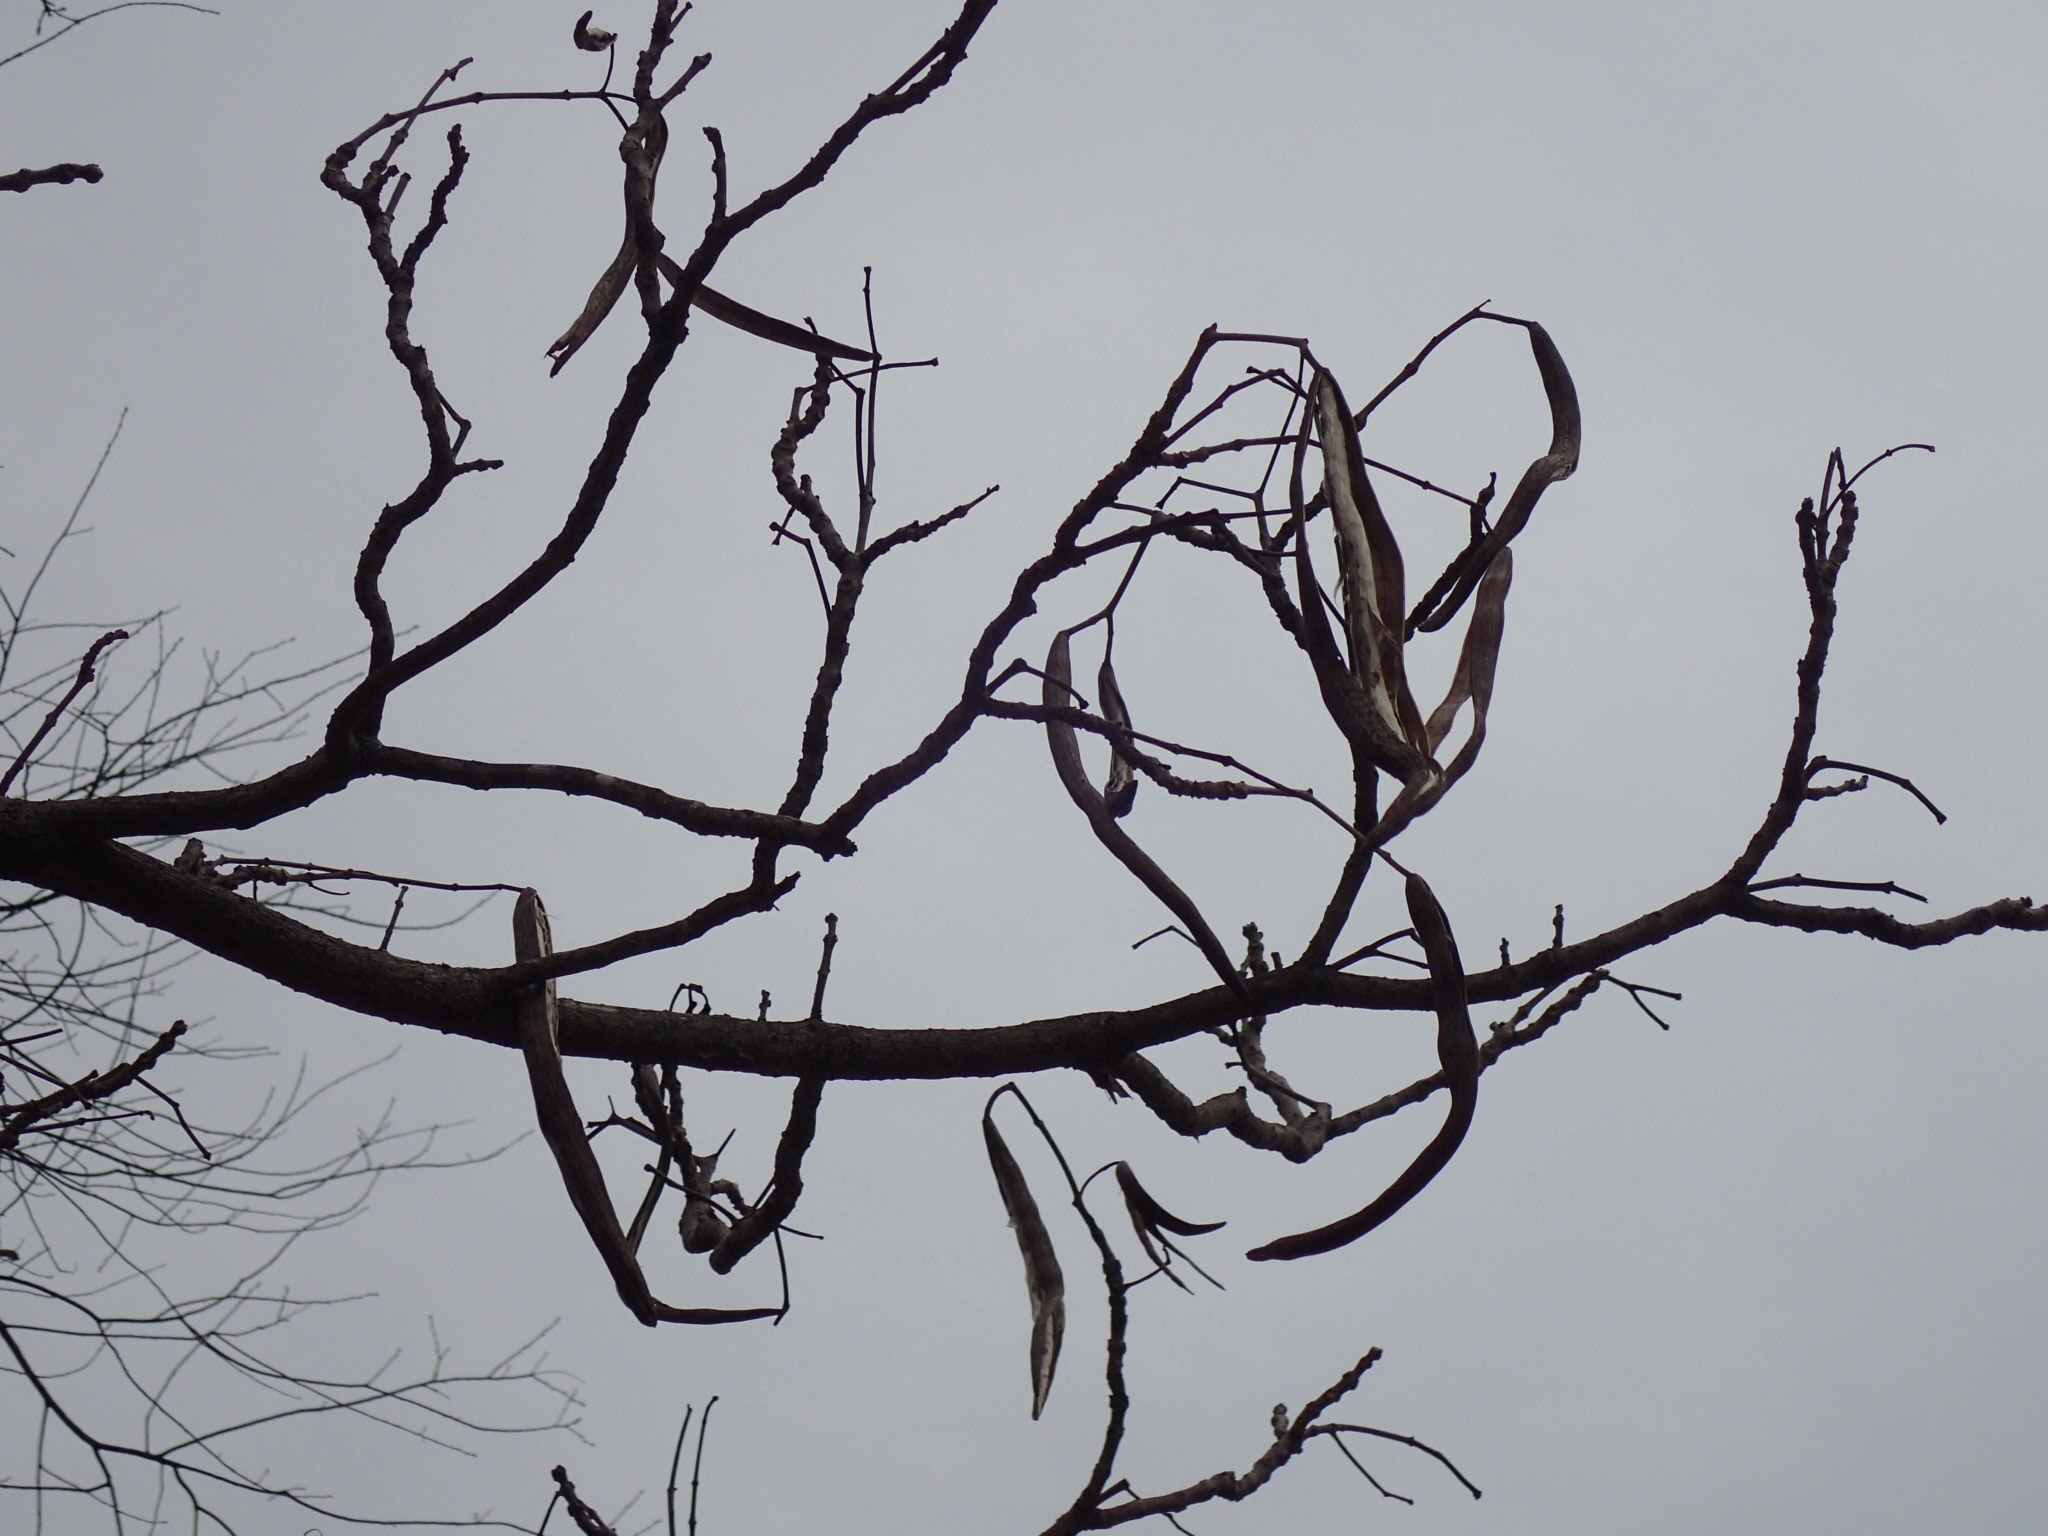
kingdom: Plantae
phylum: Tracheophyta
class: Magnoliopsida
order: Lamiales
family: Bignoniaceae
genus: Catalpa
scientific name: Catalpa speciosa
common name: Northern catalpa
